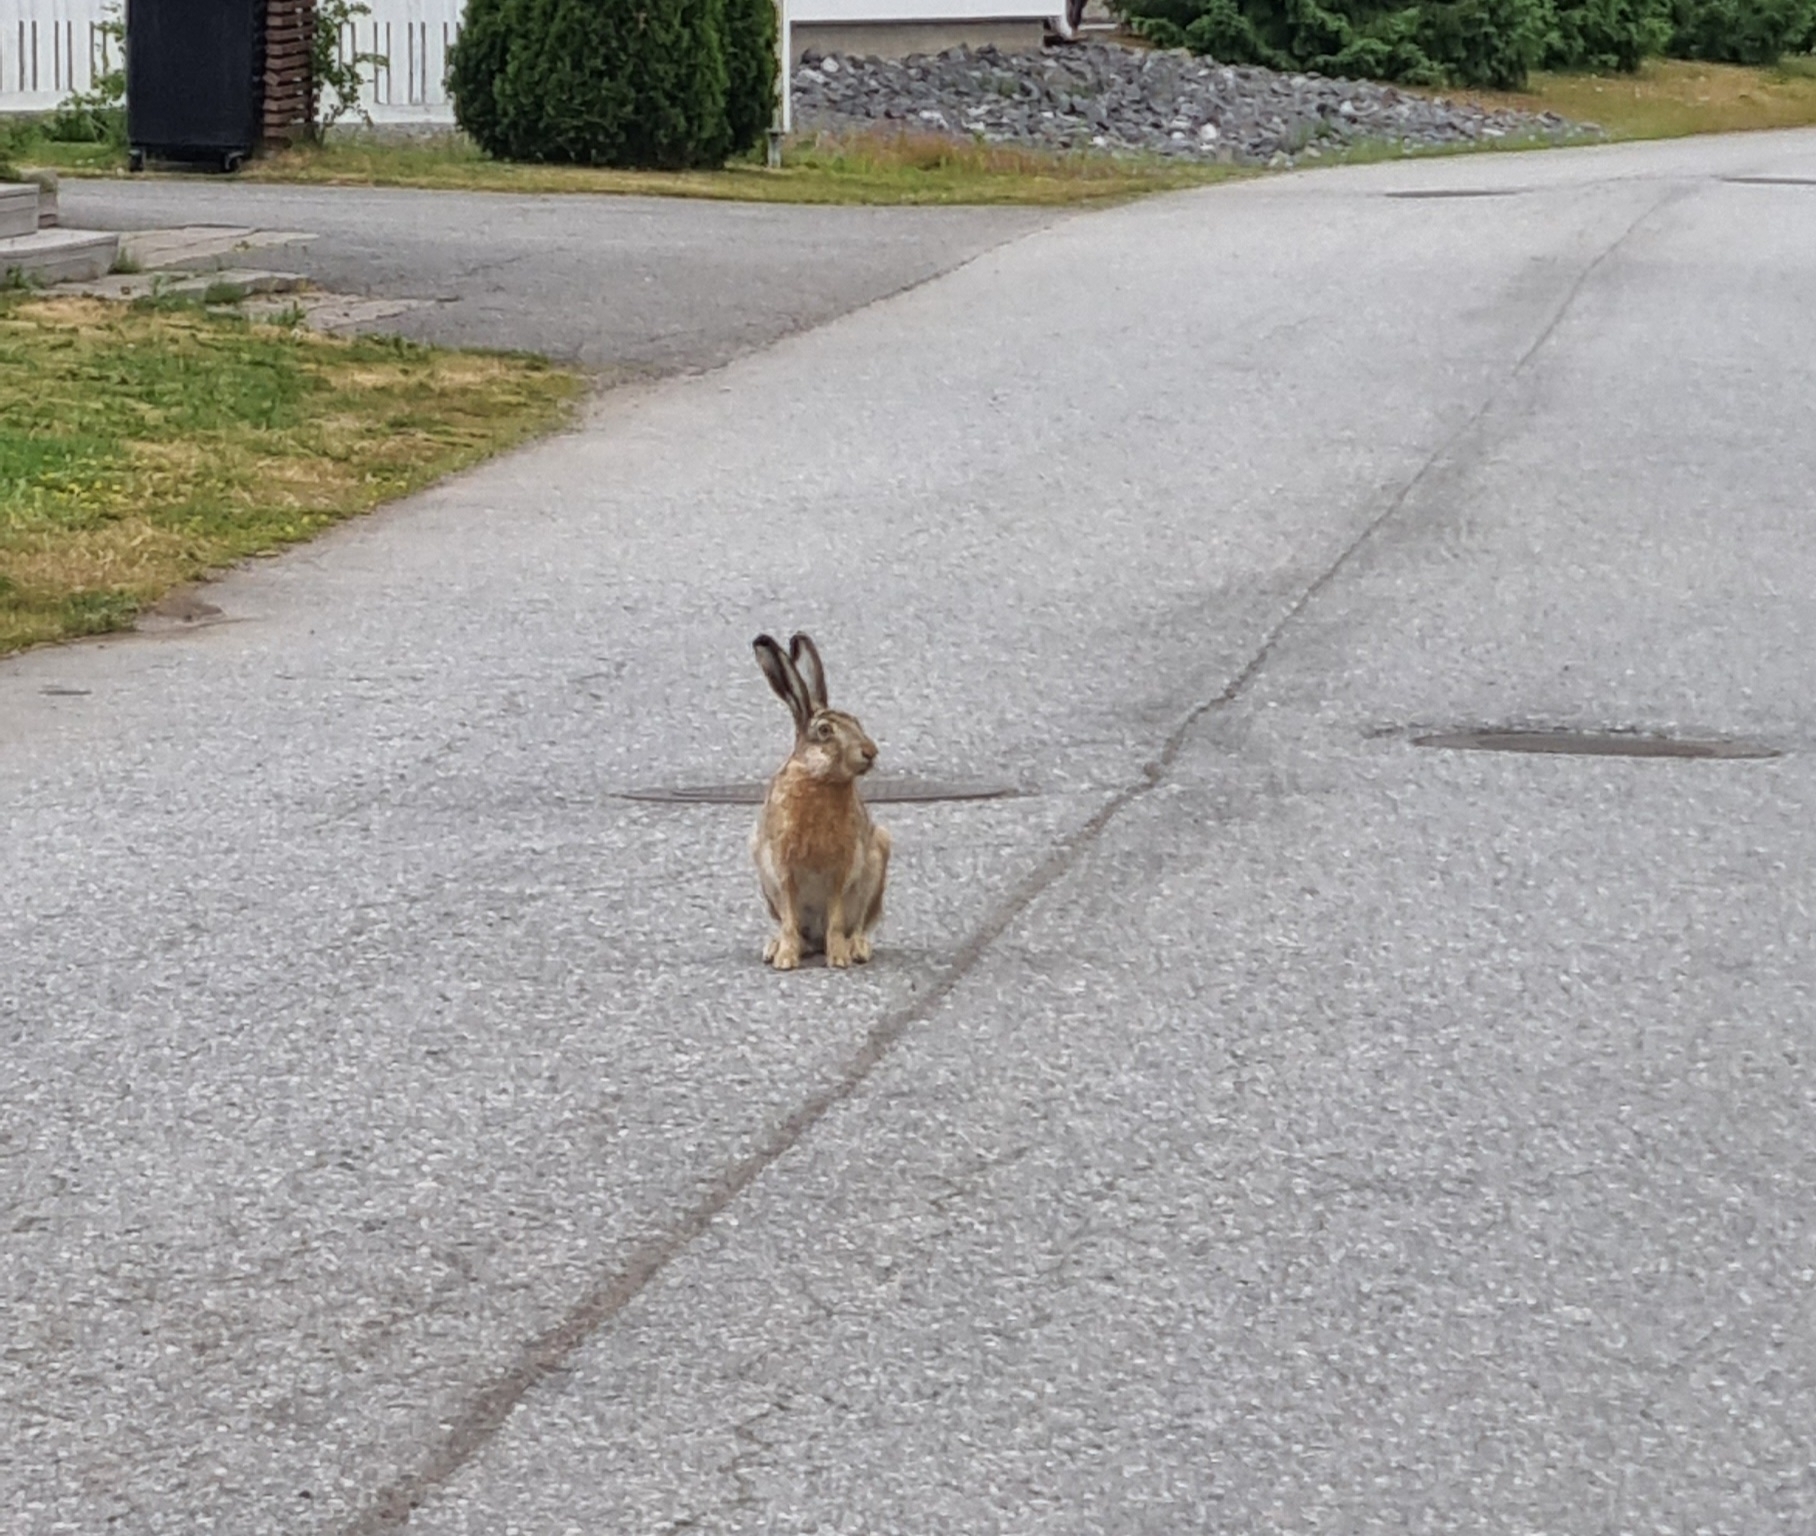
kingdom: Animalia
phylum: Chordata
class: Mammalia
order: Lagomorpha
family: Leporidae
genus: Lepus
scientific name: Lepus europaeus
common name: European hare
